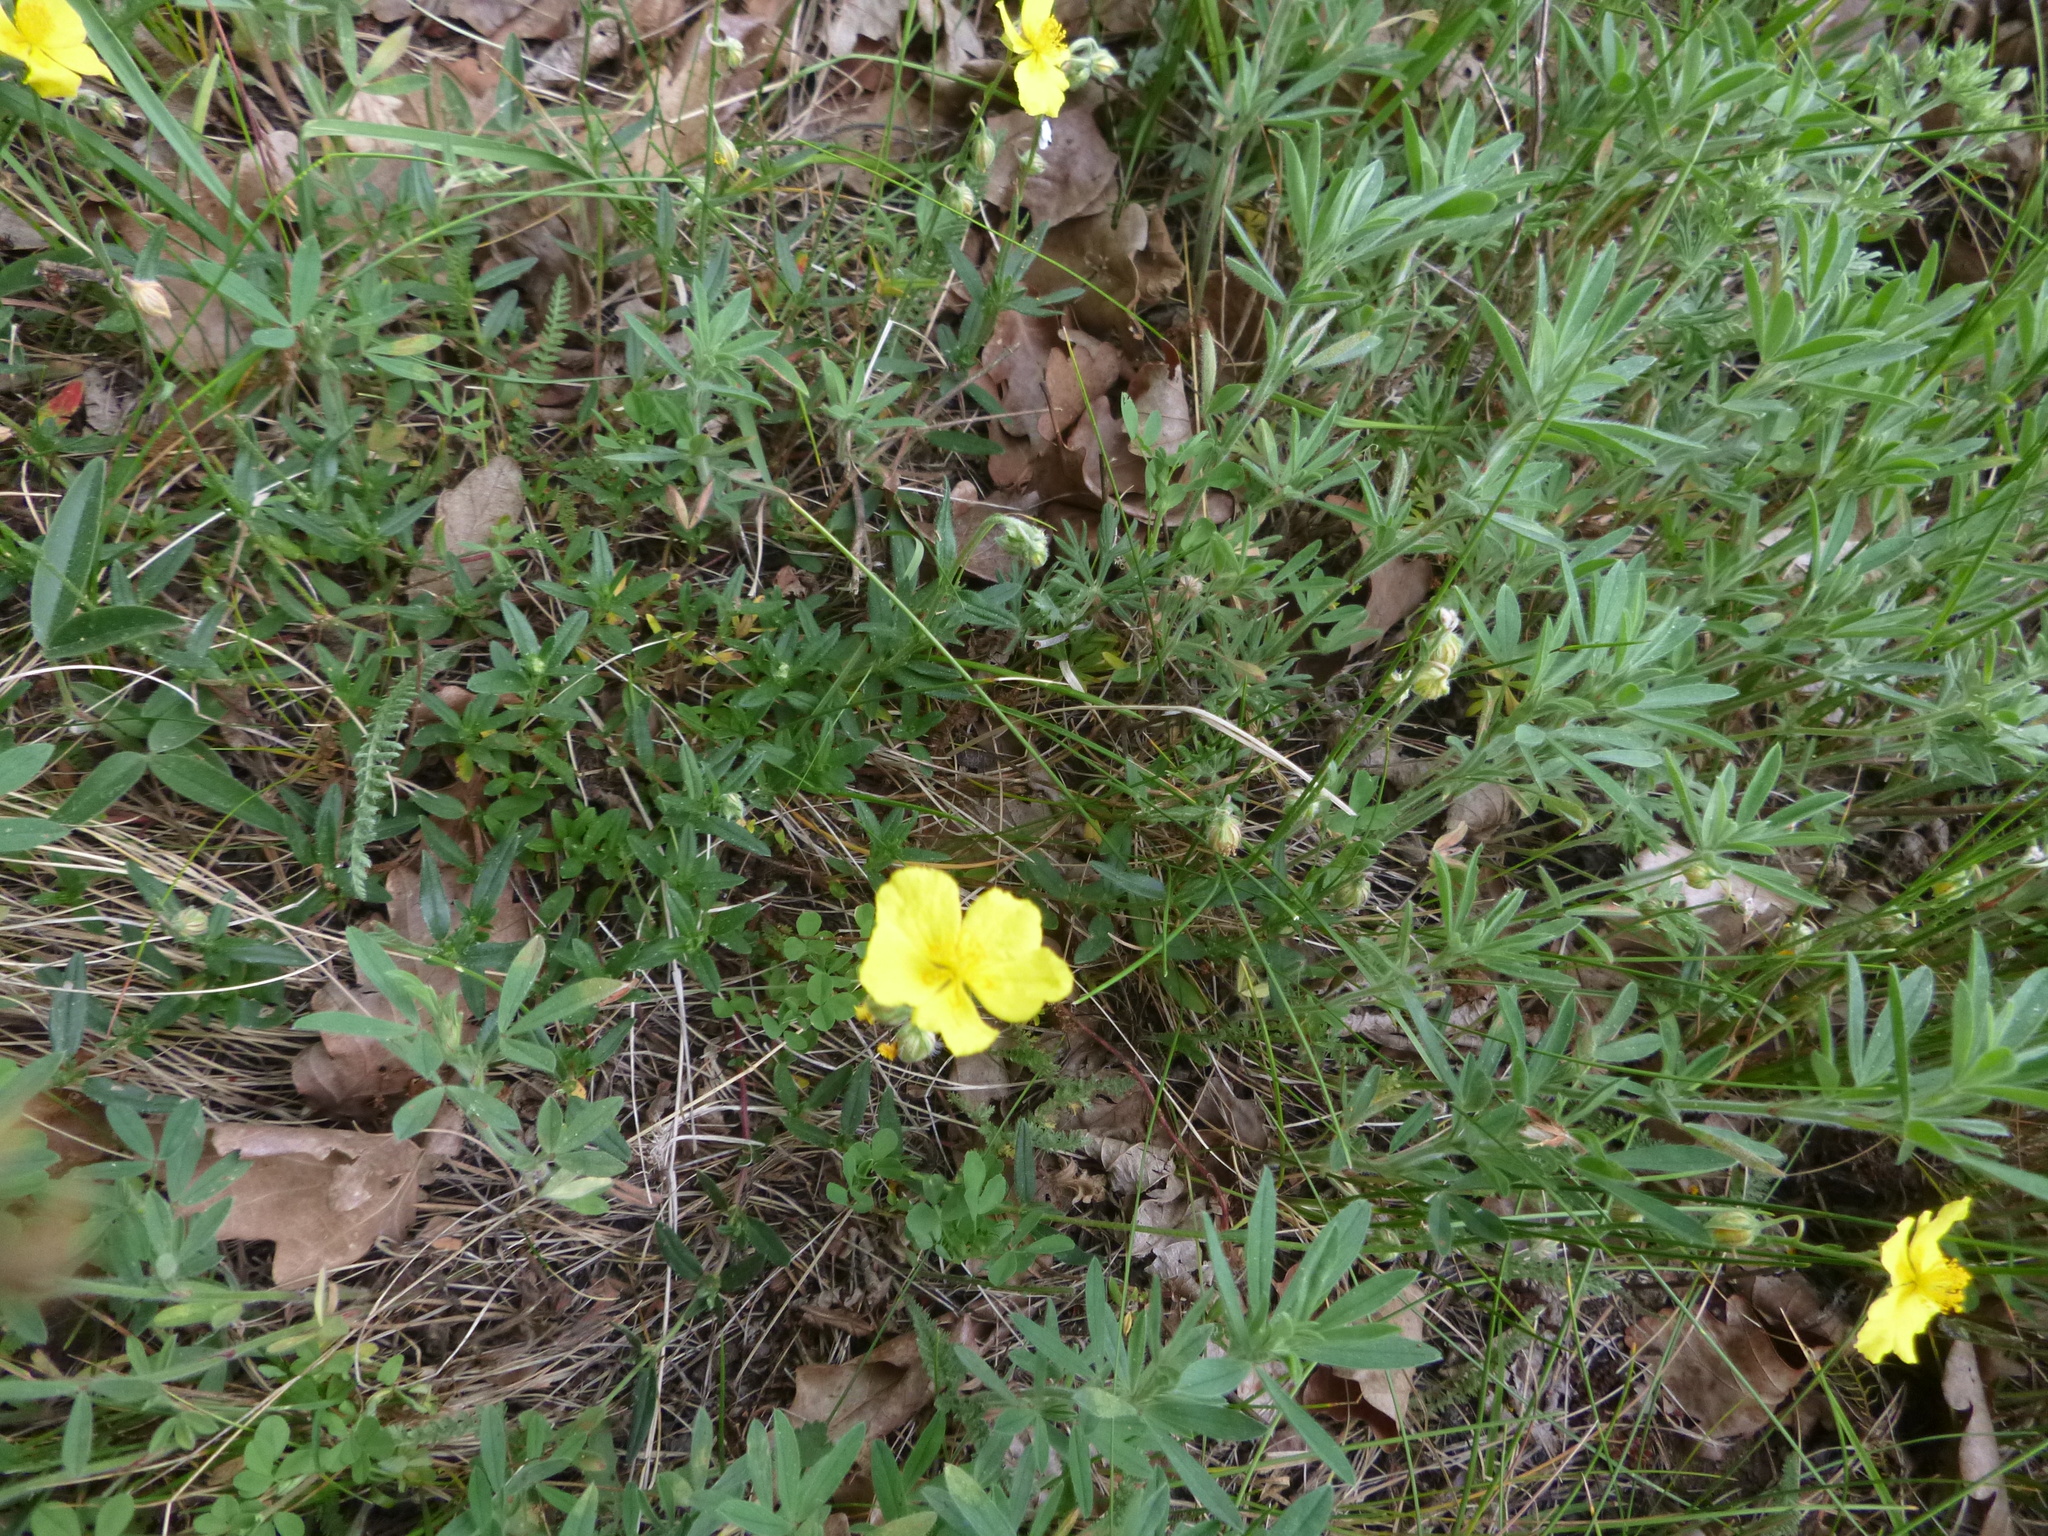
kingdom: Plantae
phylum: Tracheophyta
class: Magnoliopsida
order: Malvales
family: Cistaceae
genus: Helianthemum
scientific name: Helianthemum nummularium
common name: Common rock-rose
